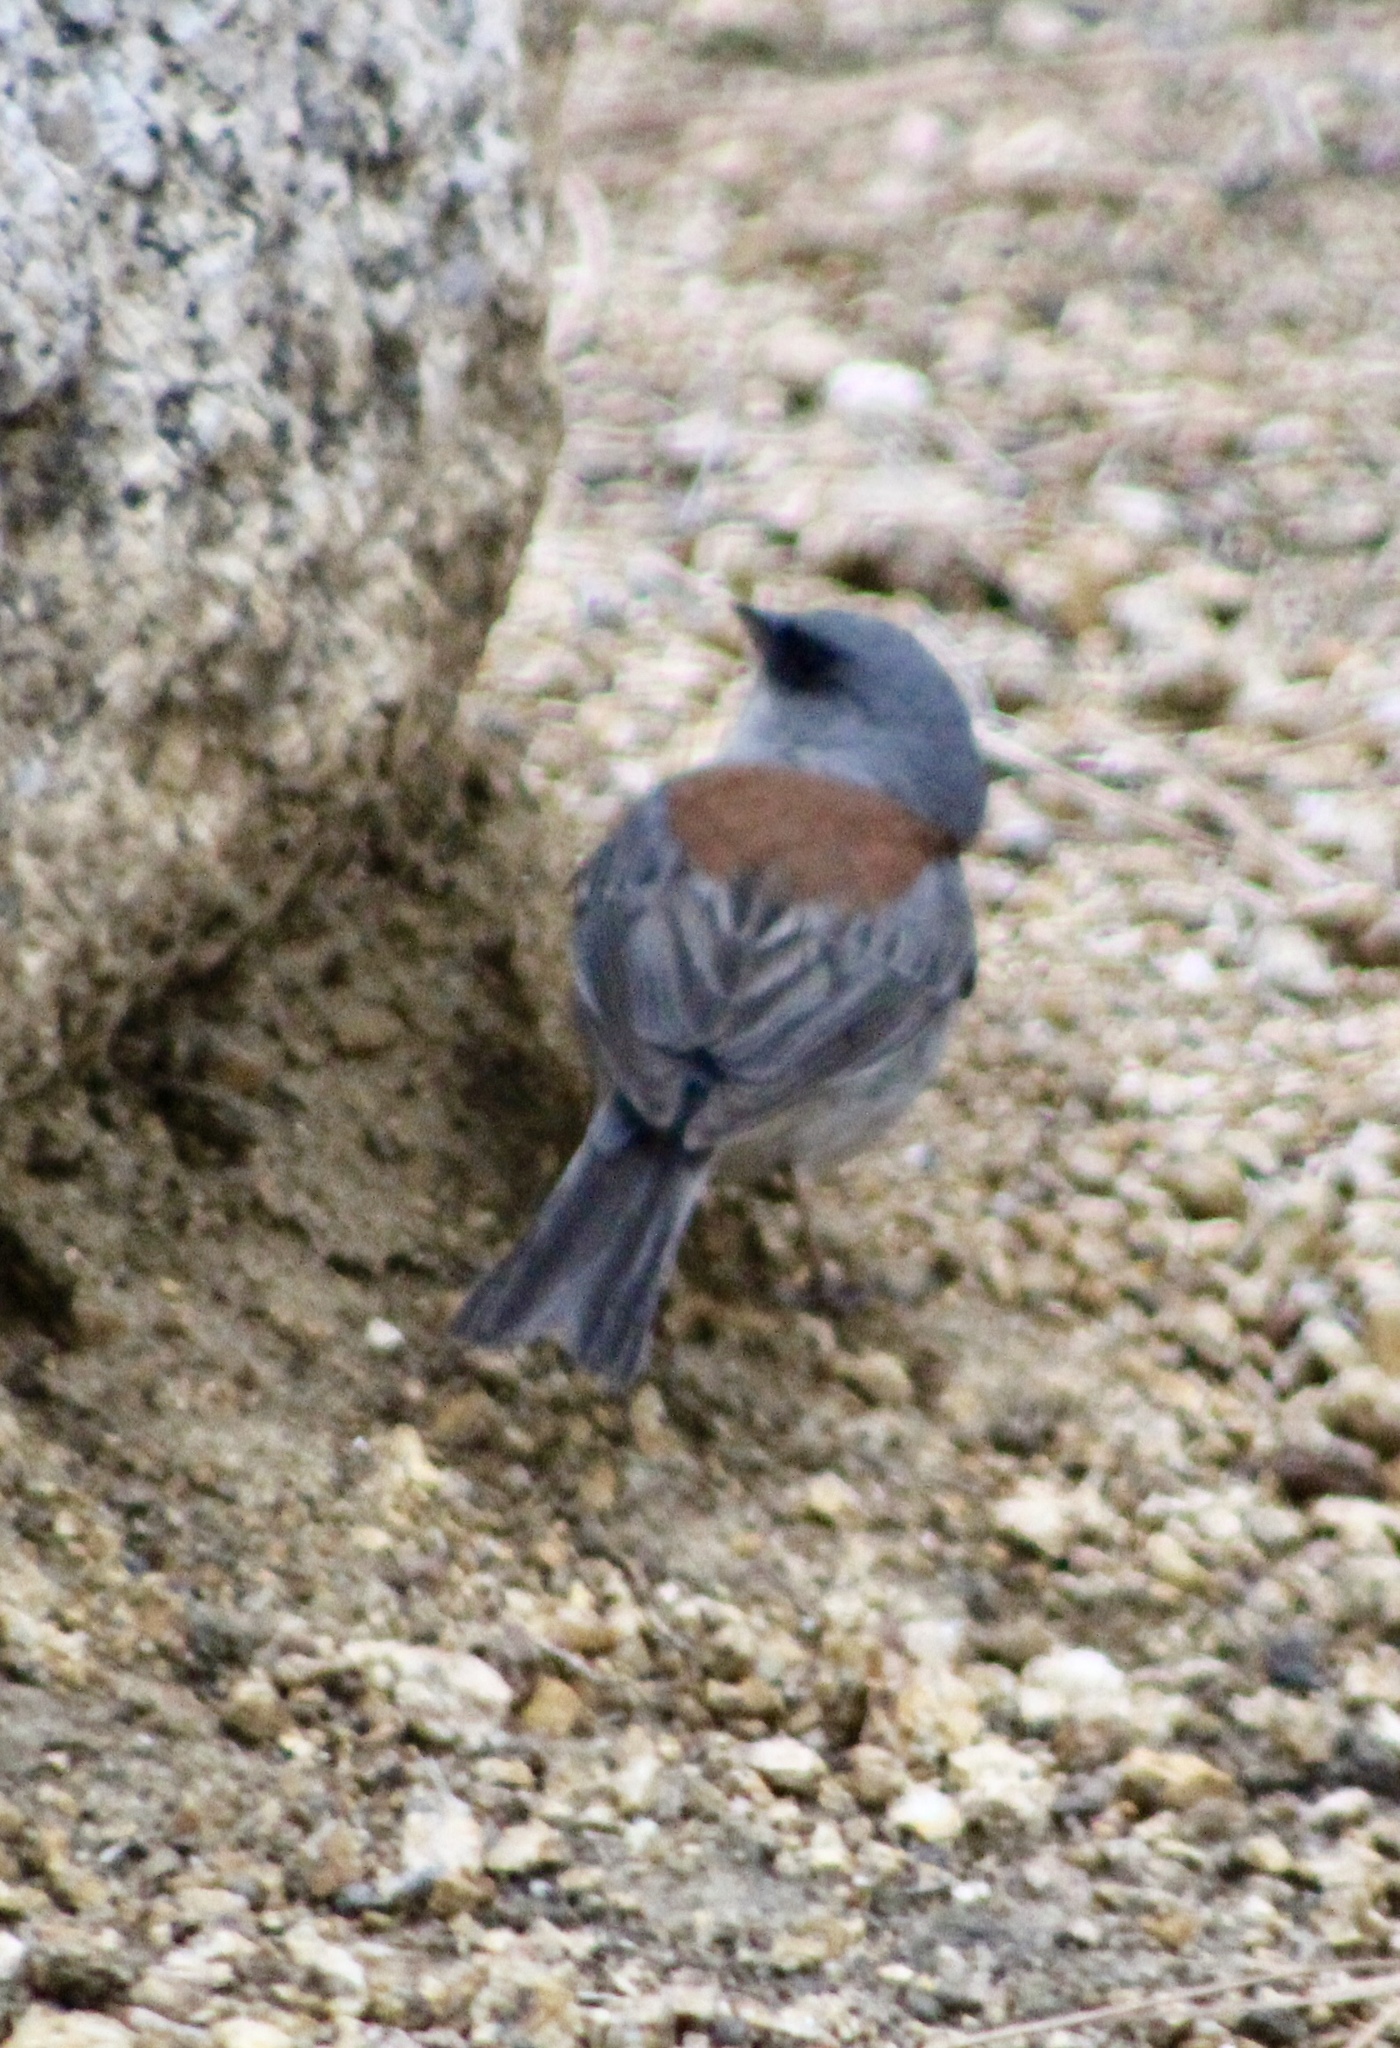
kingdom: Animalia
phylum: Chordata
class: Aves
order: Passeriformes
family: Passerellidae
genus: Junco
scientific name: Junco hyemalis
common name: Dark-eyed junco
